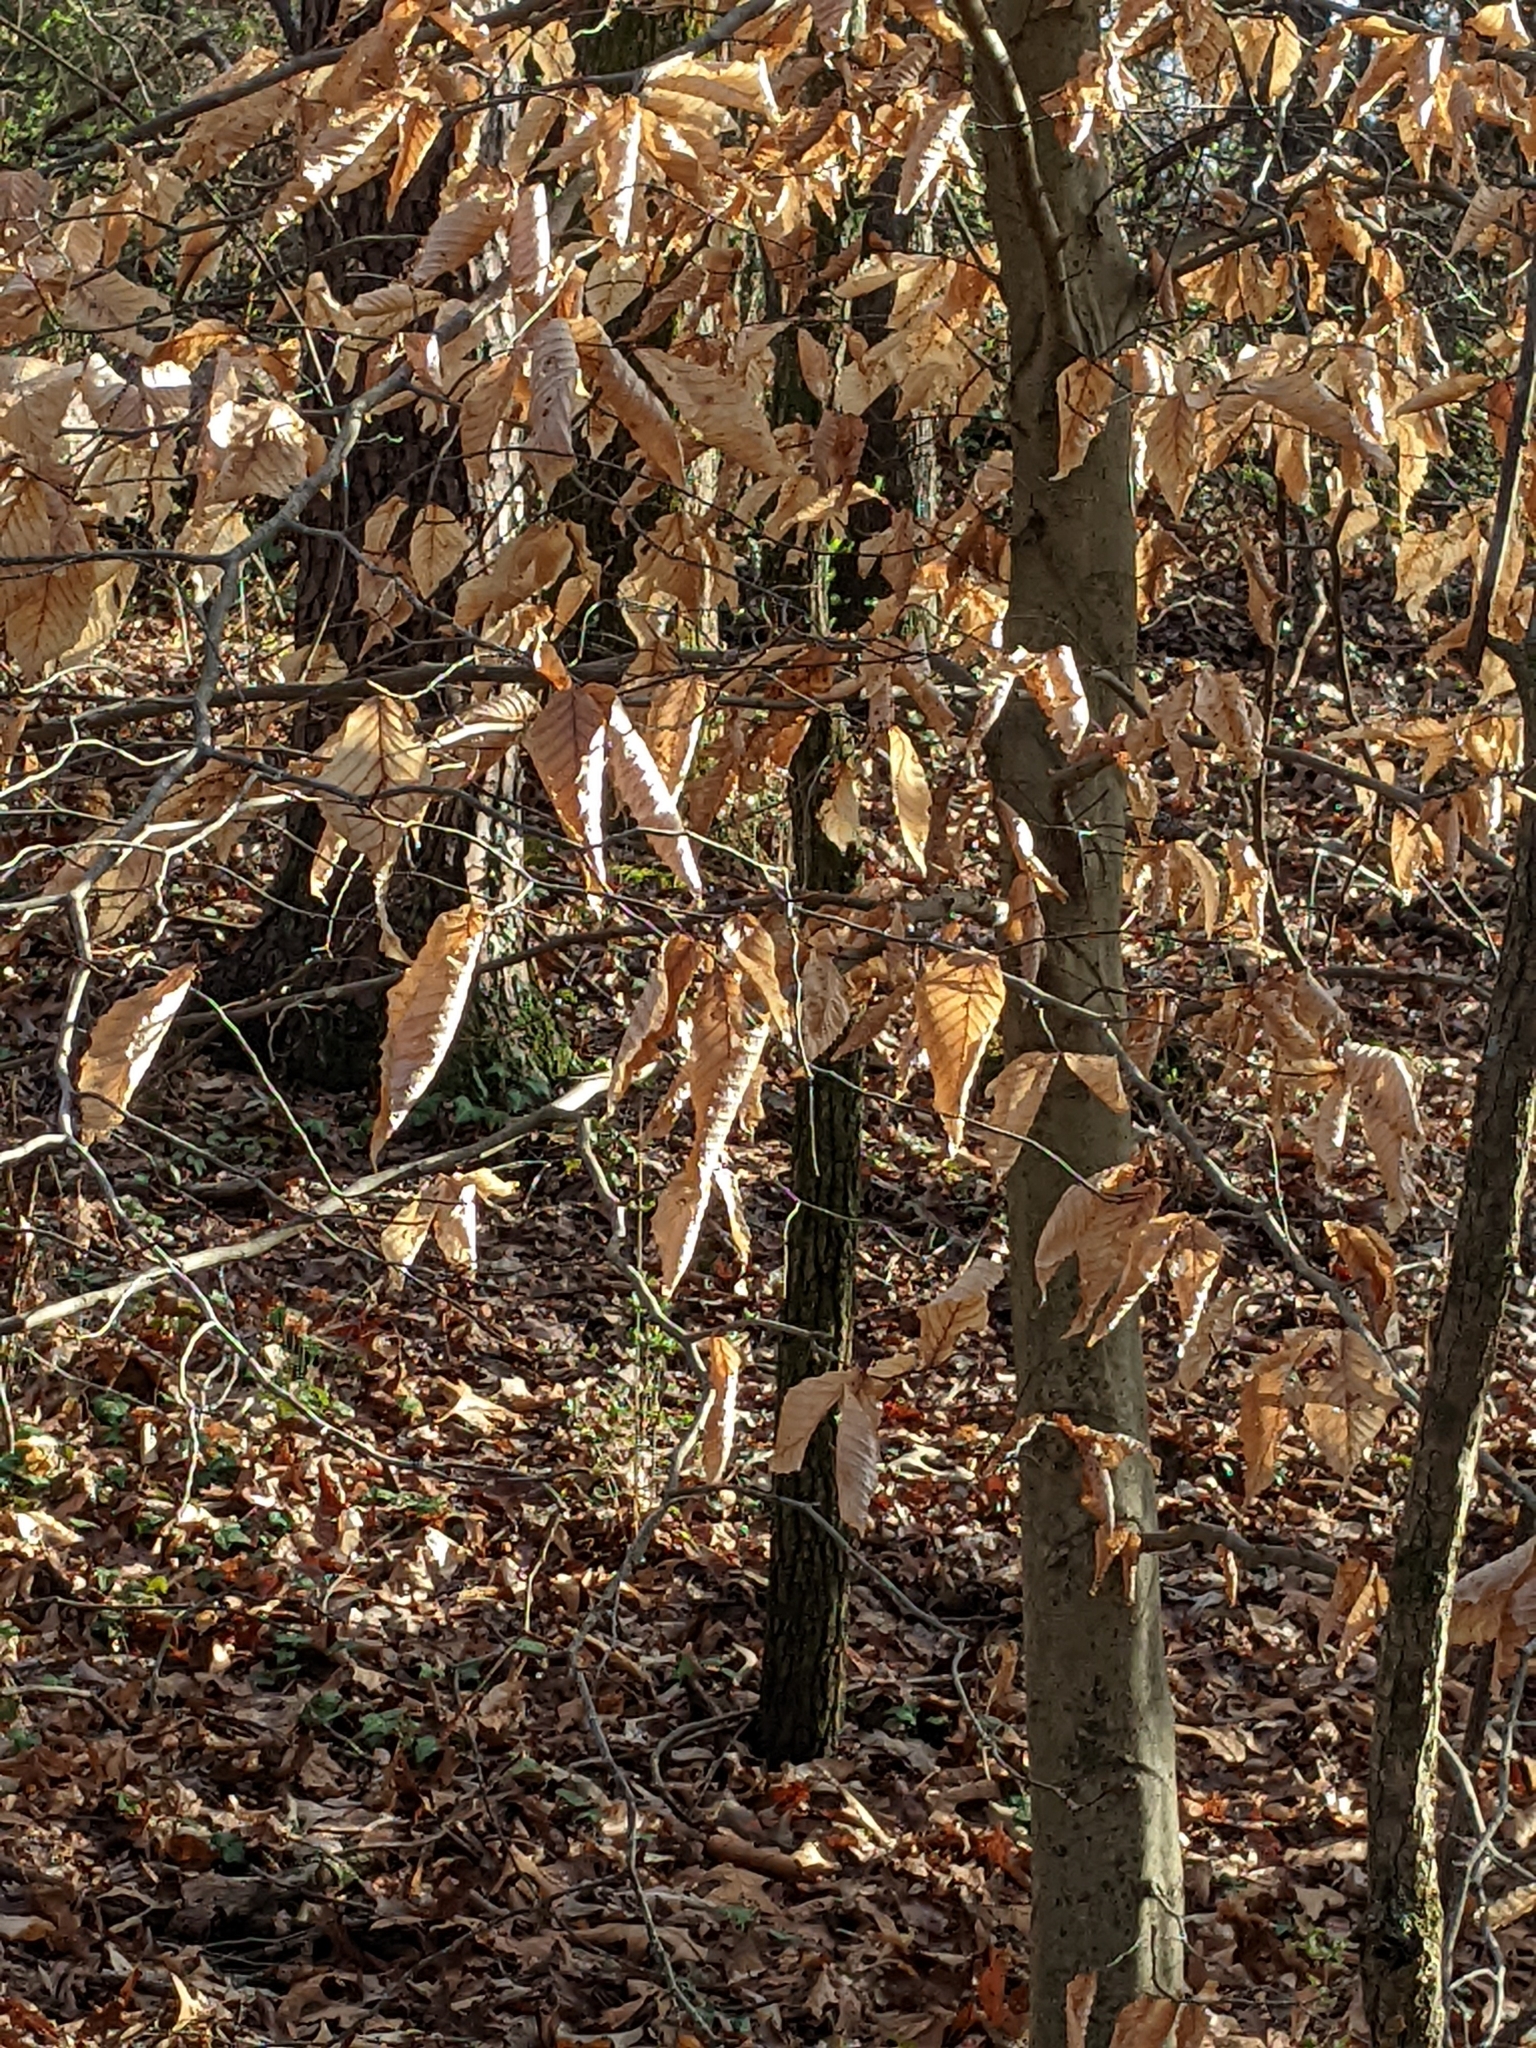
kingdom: Plantae
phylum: Tracheophyta
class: Magnoliopsida
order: Fagales
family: Fagaceae
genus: Fagus
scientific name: Fagus grandifolia
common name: American beech
